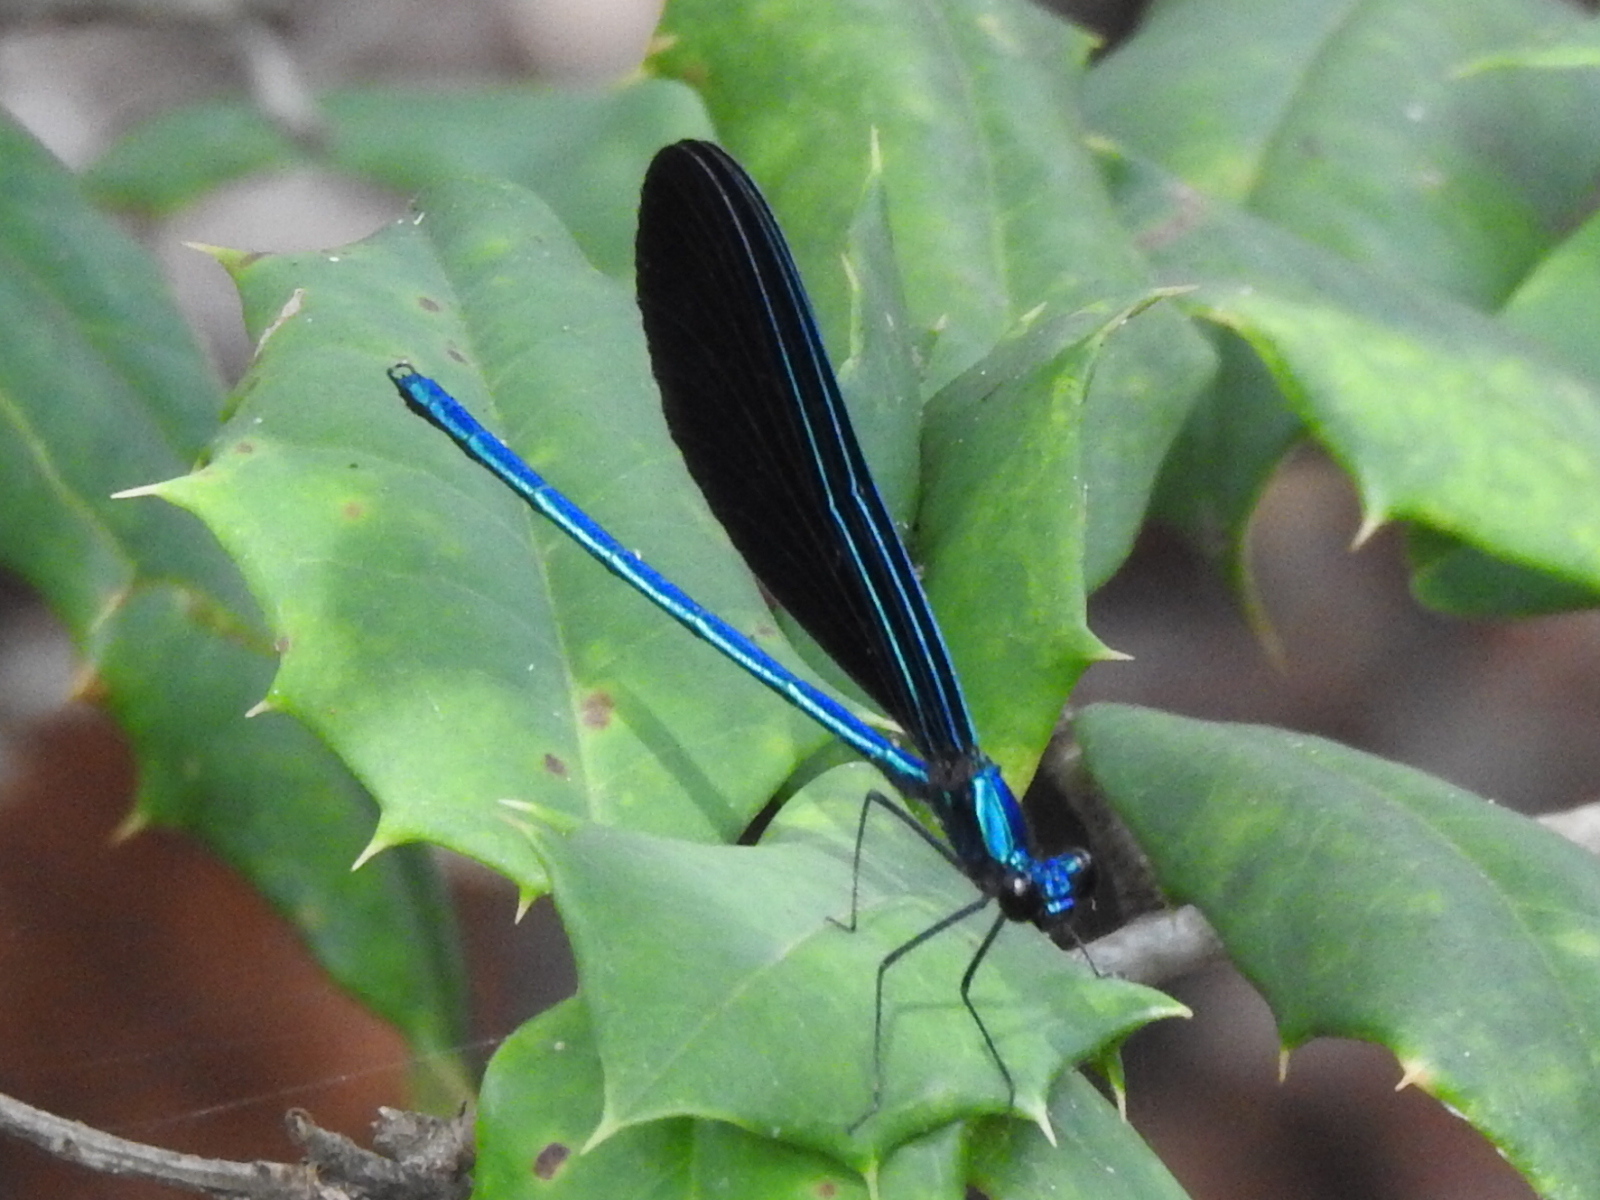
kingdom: Animalia
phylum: Arthropoda
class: Insecta
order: Odonata
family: Calopterygidae
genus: Calopteryx
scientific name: Calopteryx maculata
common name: Ebony jewelwing
